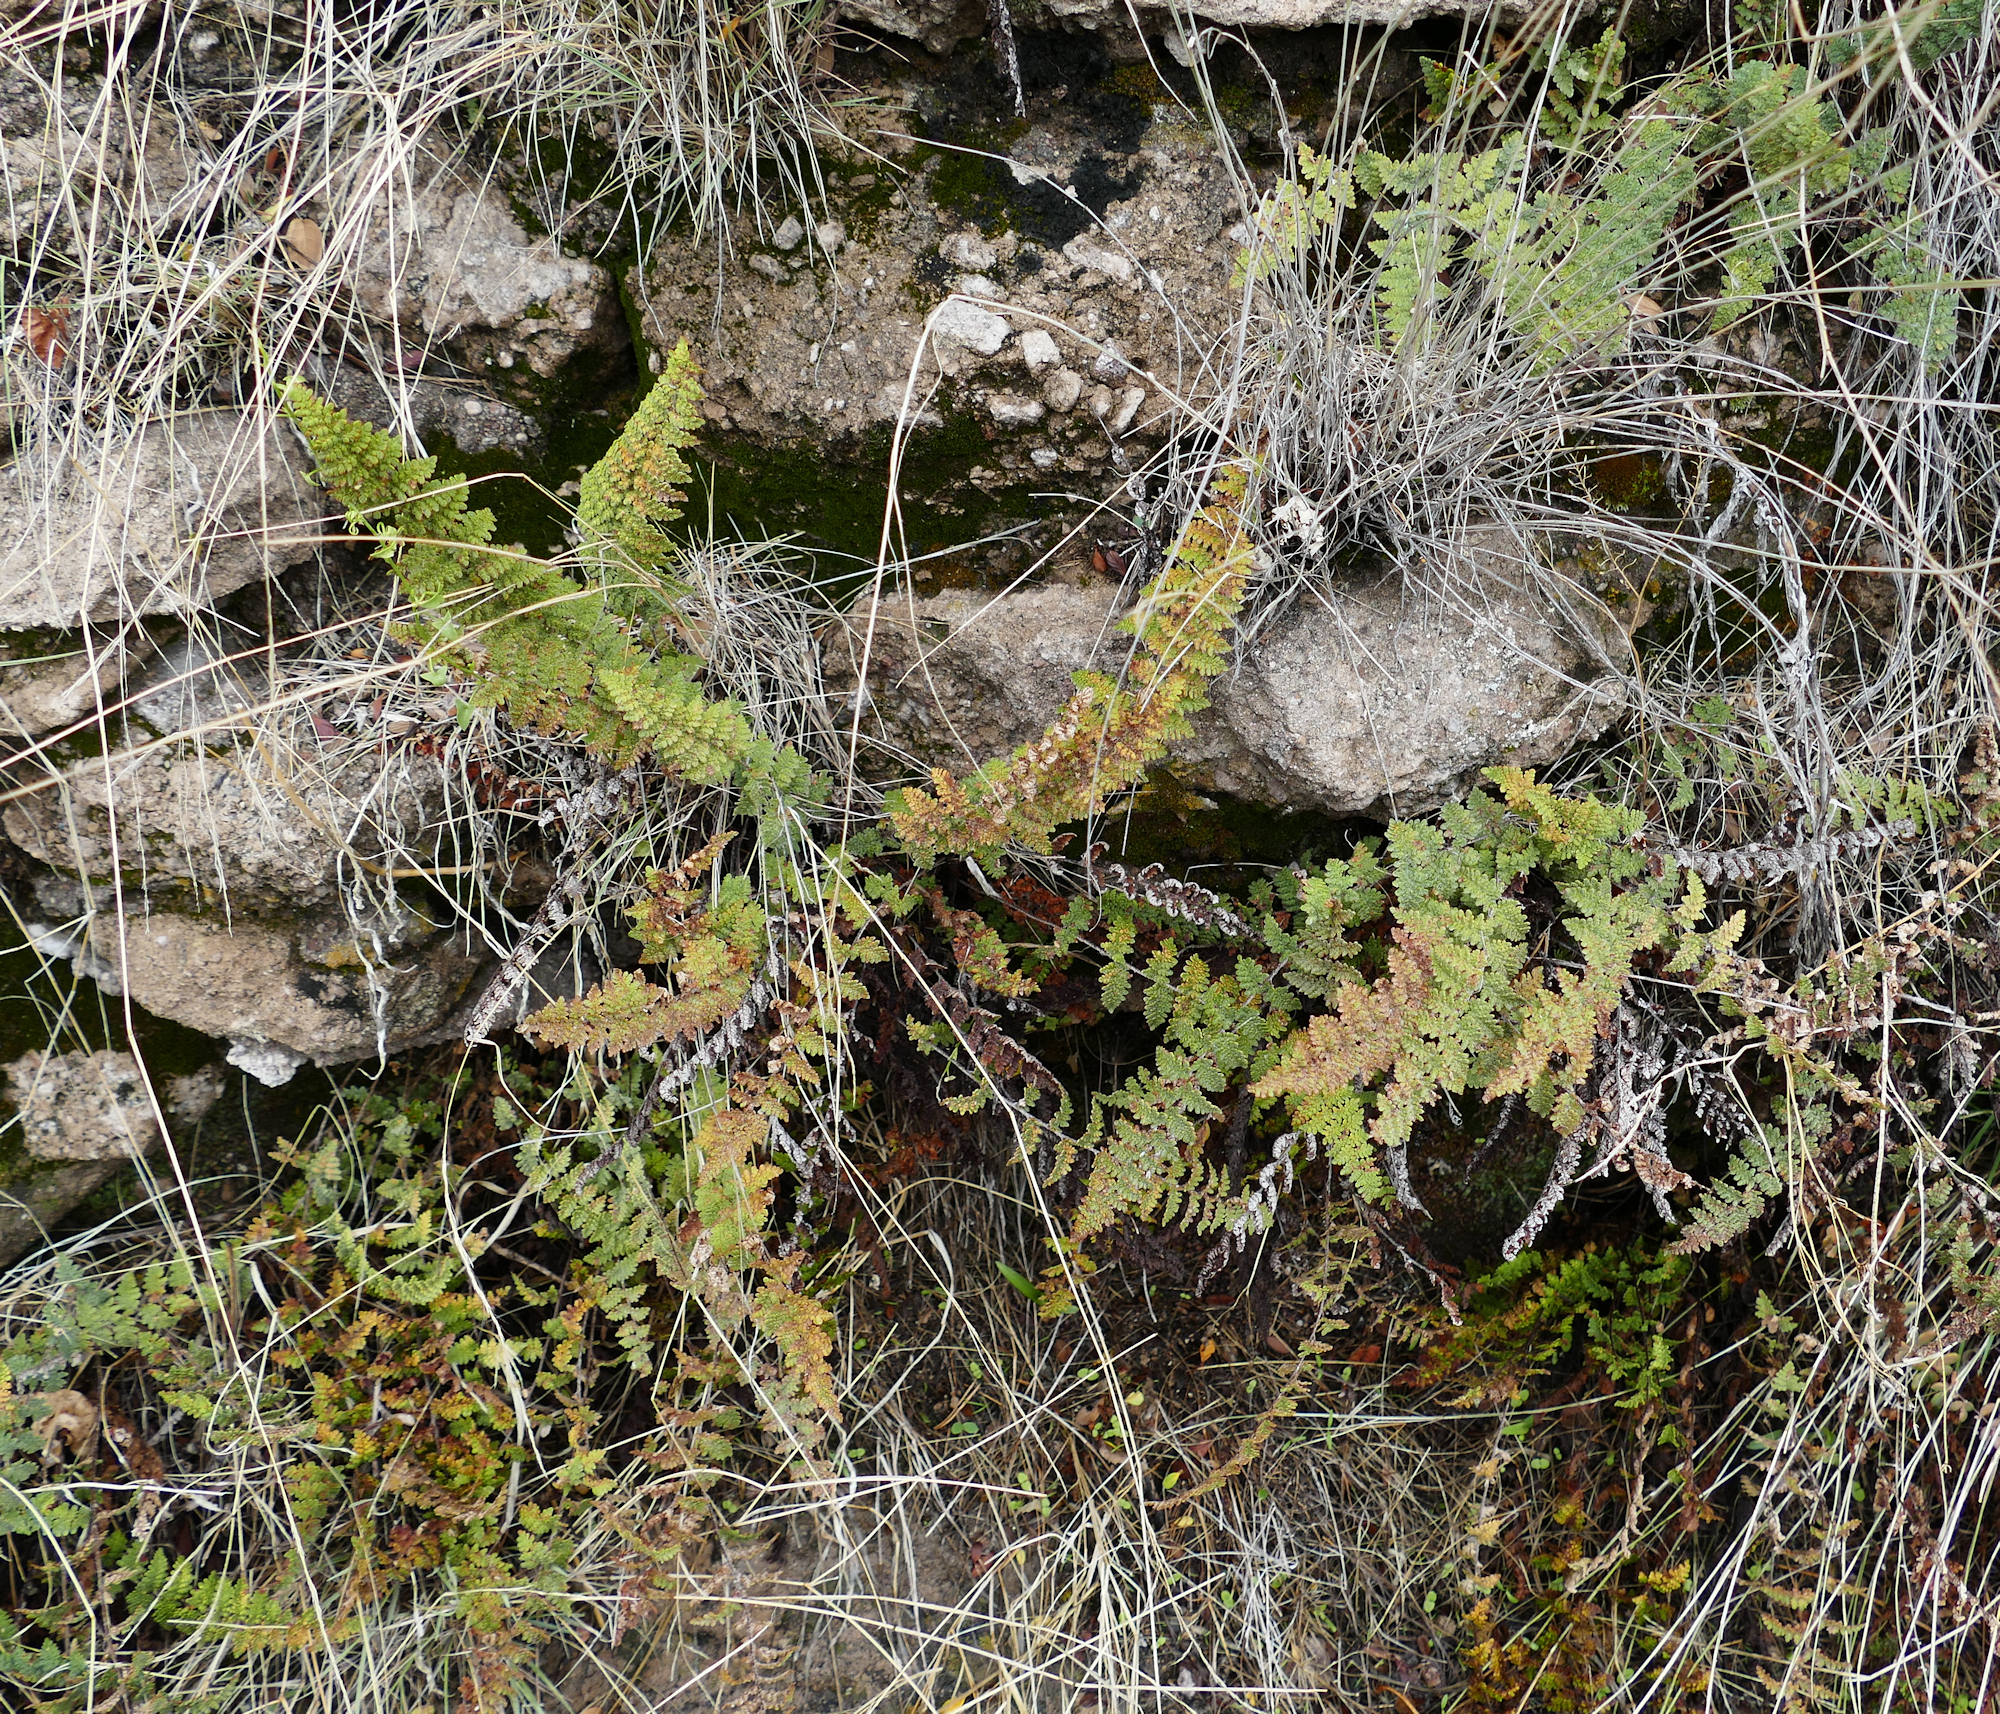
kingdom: Plantae
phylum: Tracheophyta
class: Polypodiopsida
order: Polypodiales
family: Pteridaceae
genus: Myriopteris
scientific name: Myriopteris rufa
